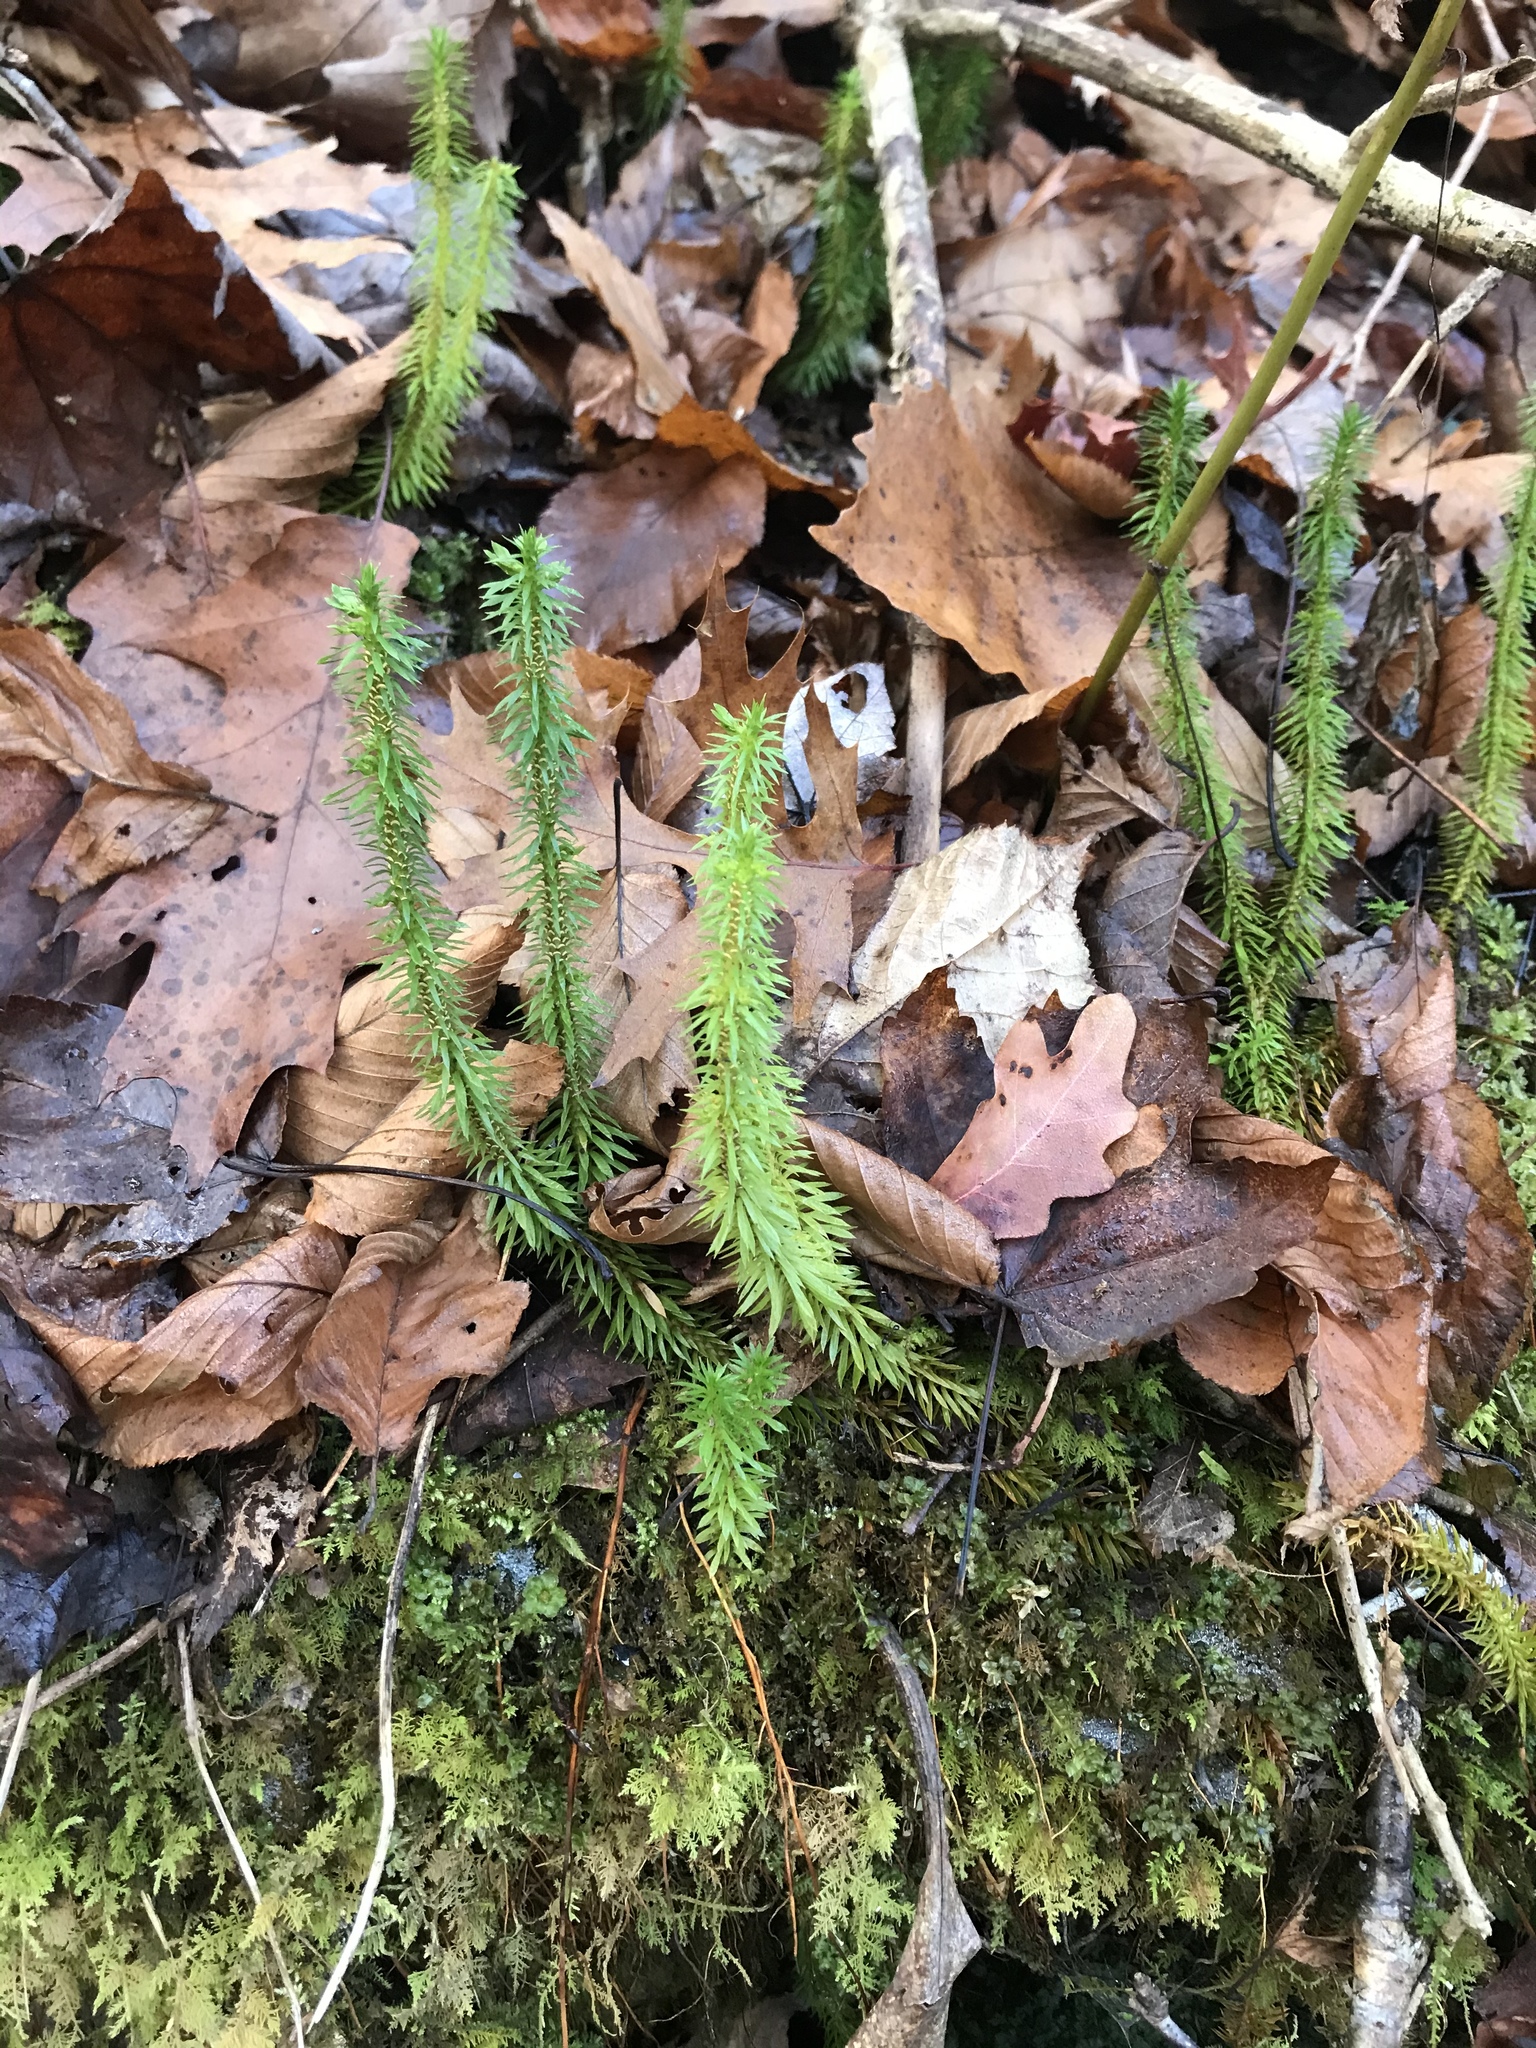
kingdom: Plantae
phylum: Tracheophyta
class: Lycopodiopsida
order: Lycopodiales
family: Lycopodiaceae
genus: Huperzia
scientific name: Huperzia lucidula
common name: Shining clubmoss
